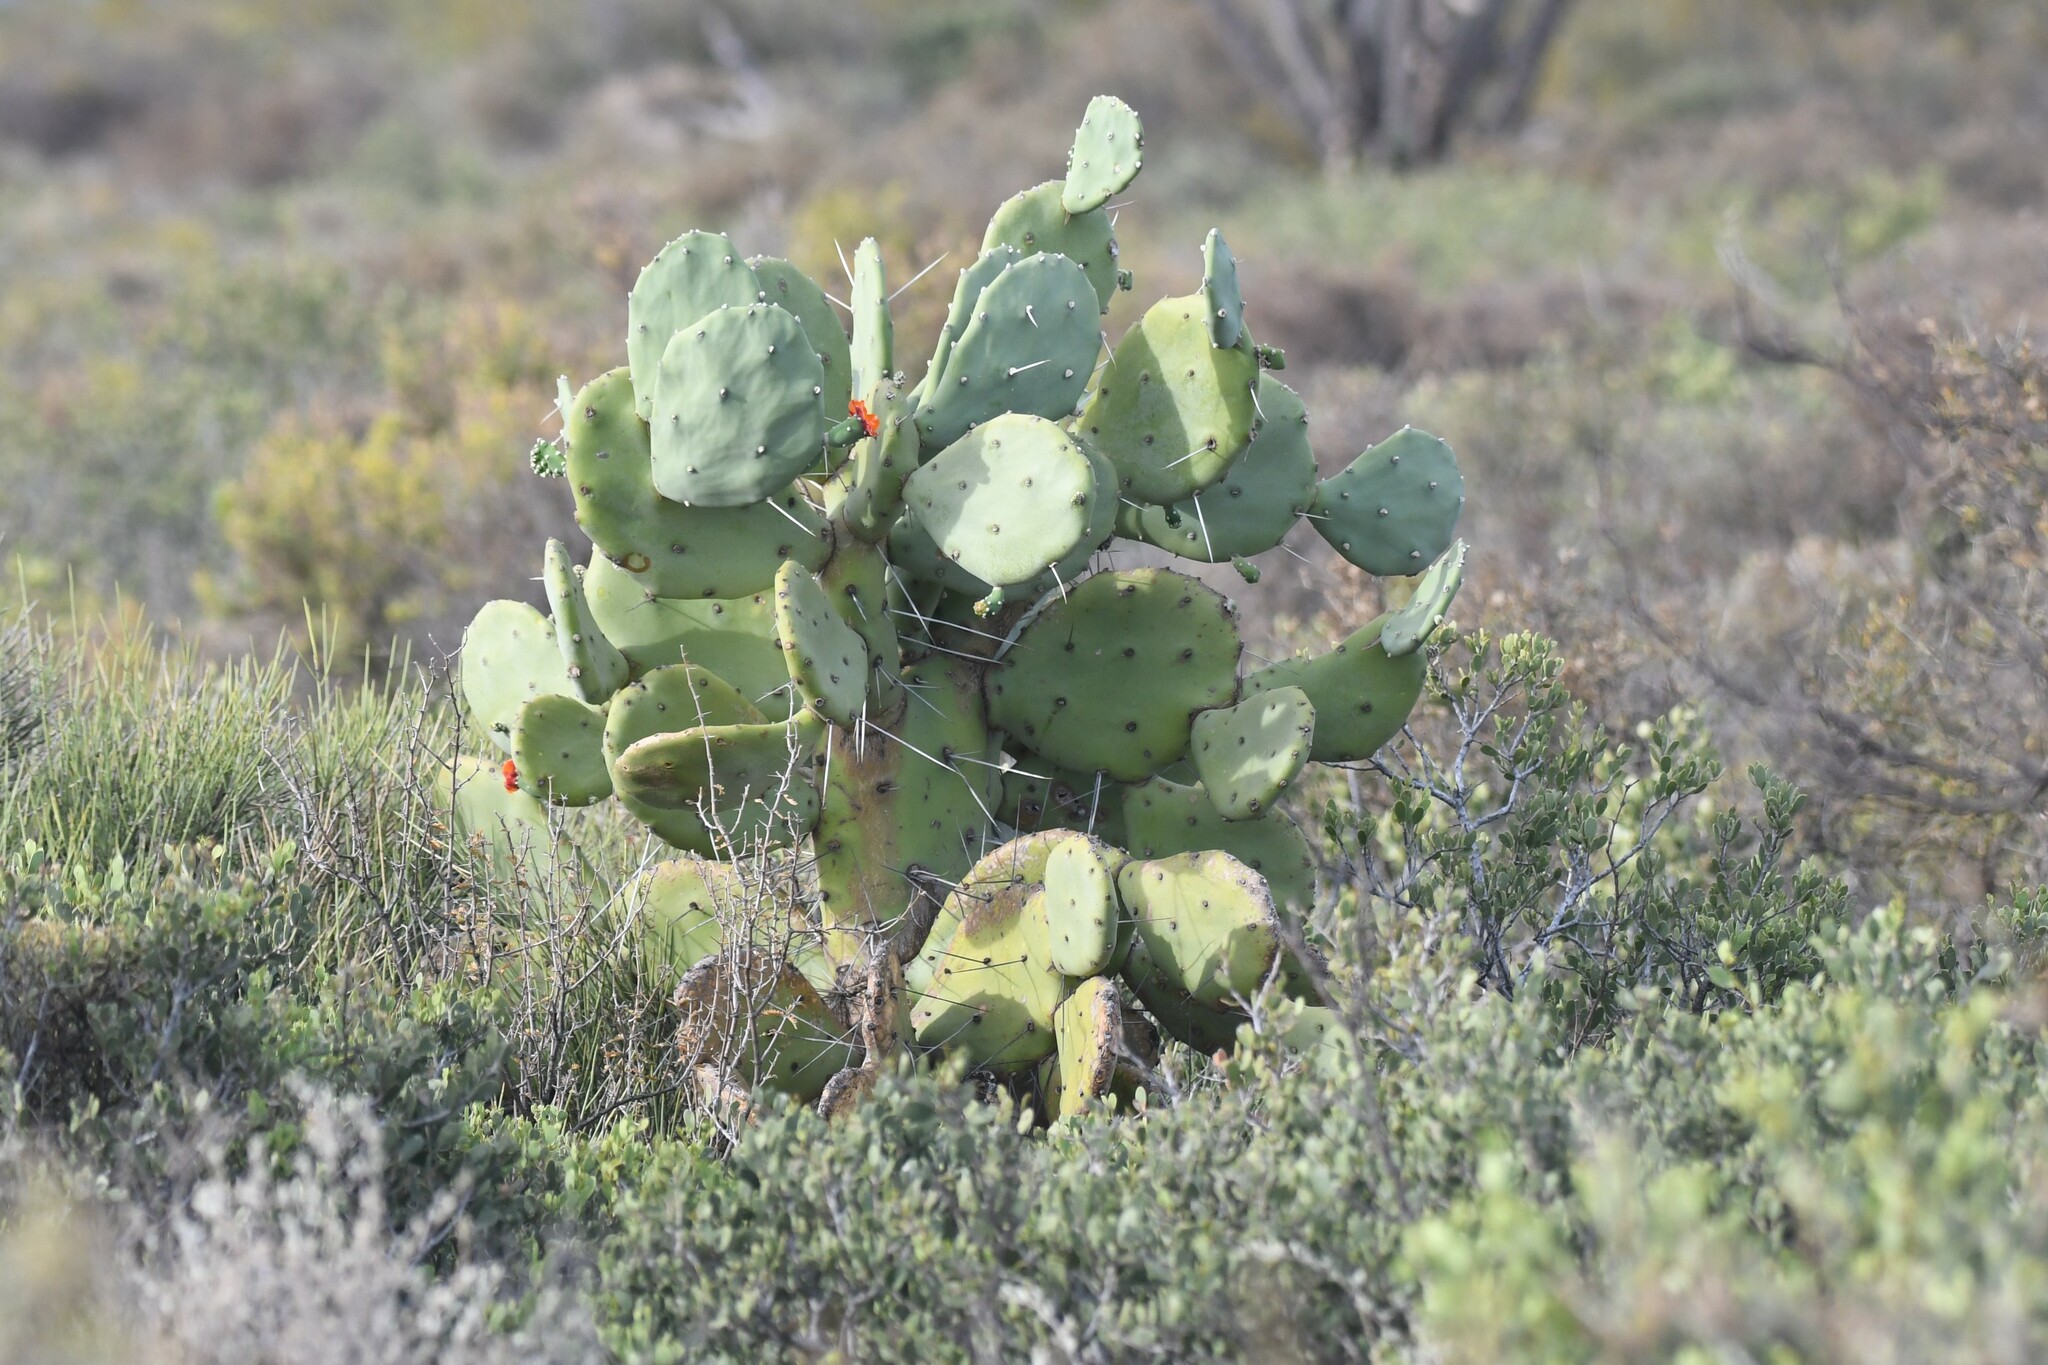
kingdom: Plantae
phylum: Tracheophyta
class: Magnoliopsida
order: Caryophyllales
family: Cactaceae
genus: Opuntia
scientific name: Opuntia quimilo
